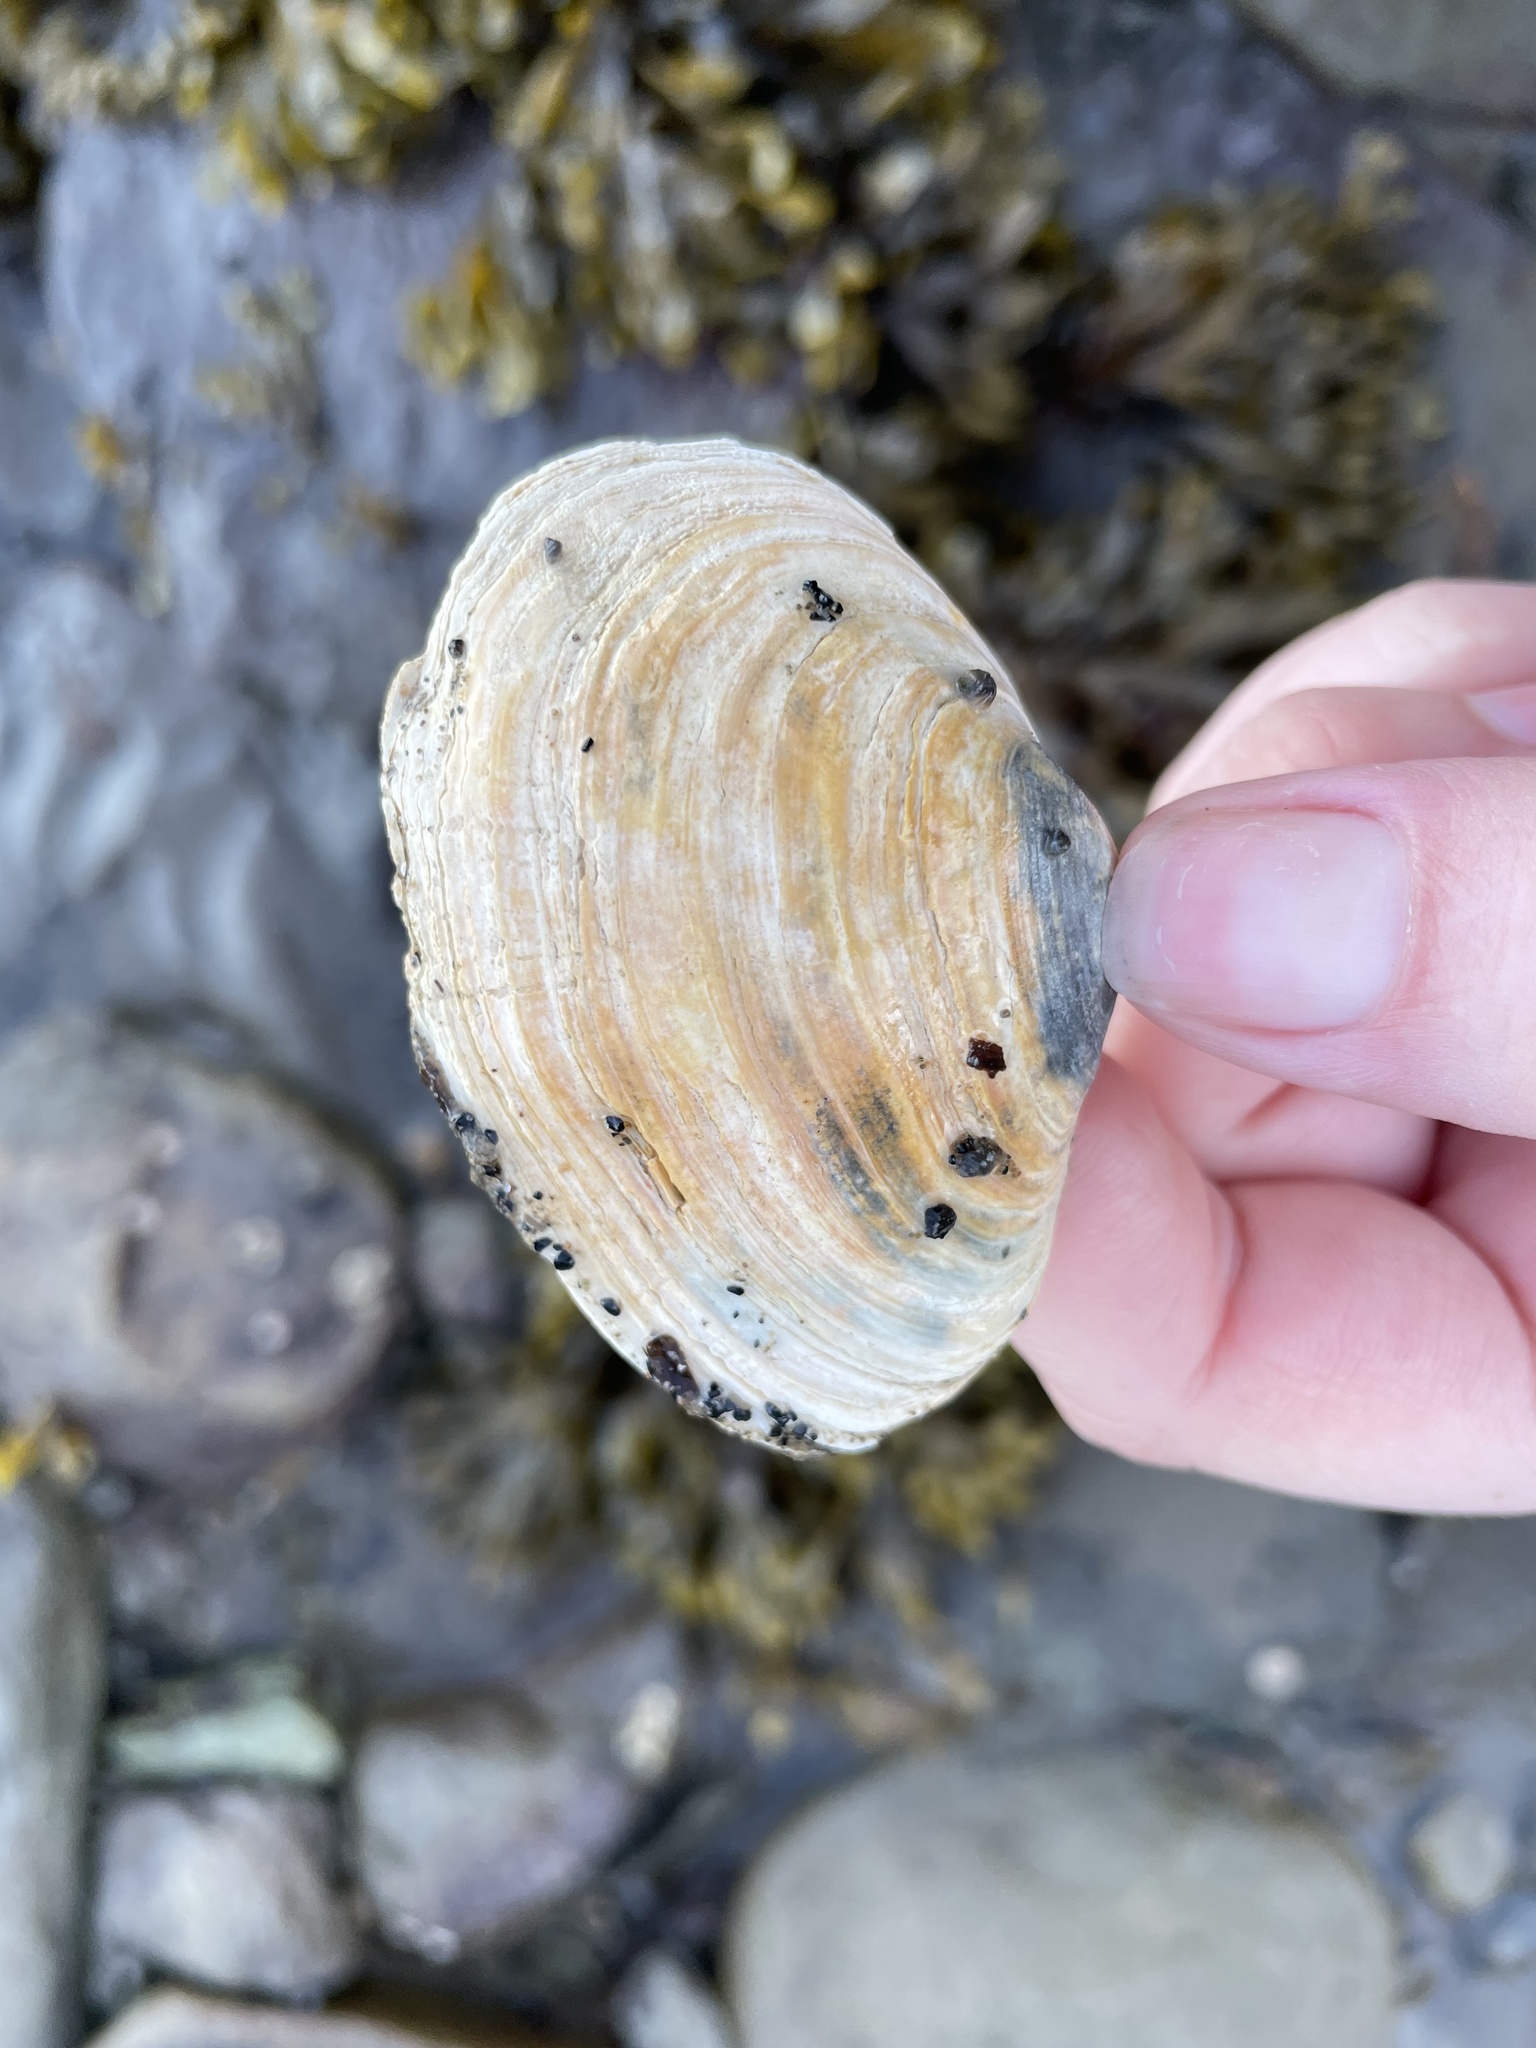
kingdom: Animalia
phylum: Mollusca
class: Bivalvia
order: Myida
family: Myidae
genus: Mya
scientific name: Mya arenaria
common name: Soft-shelled clam
